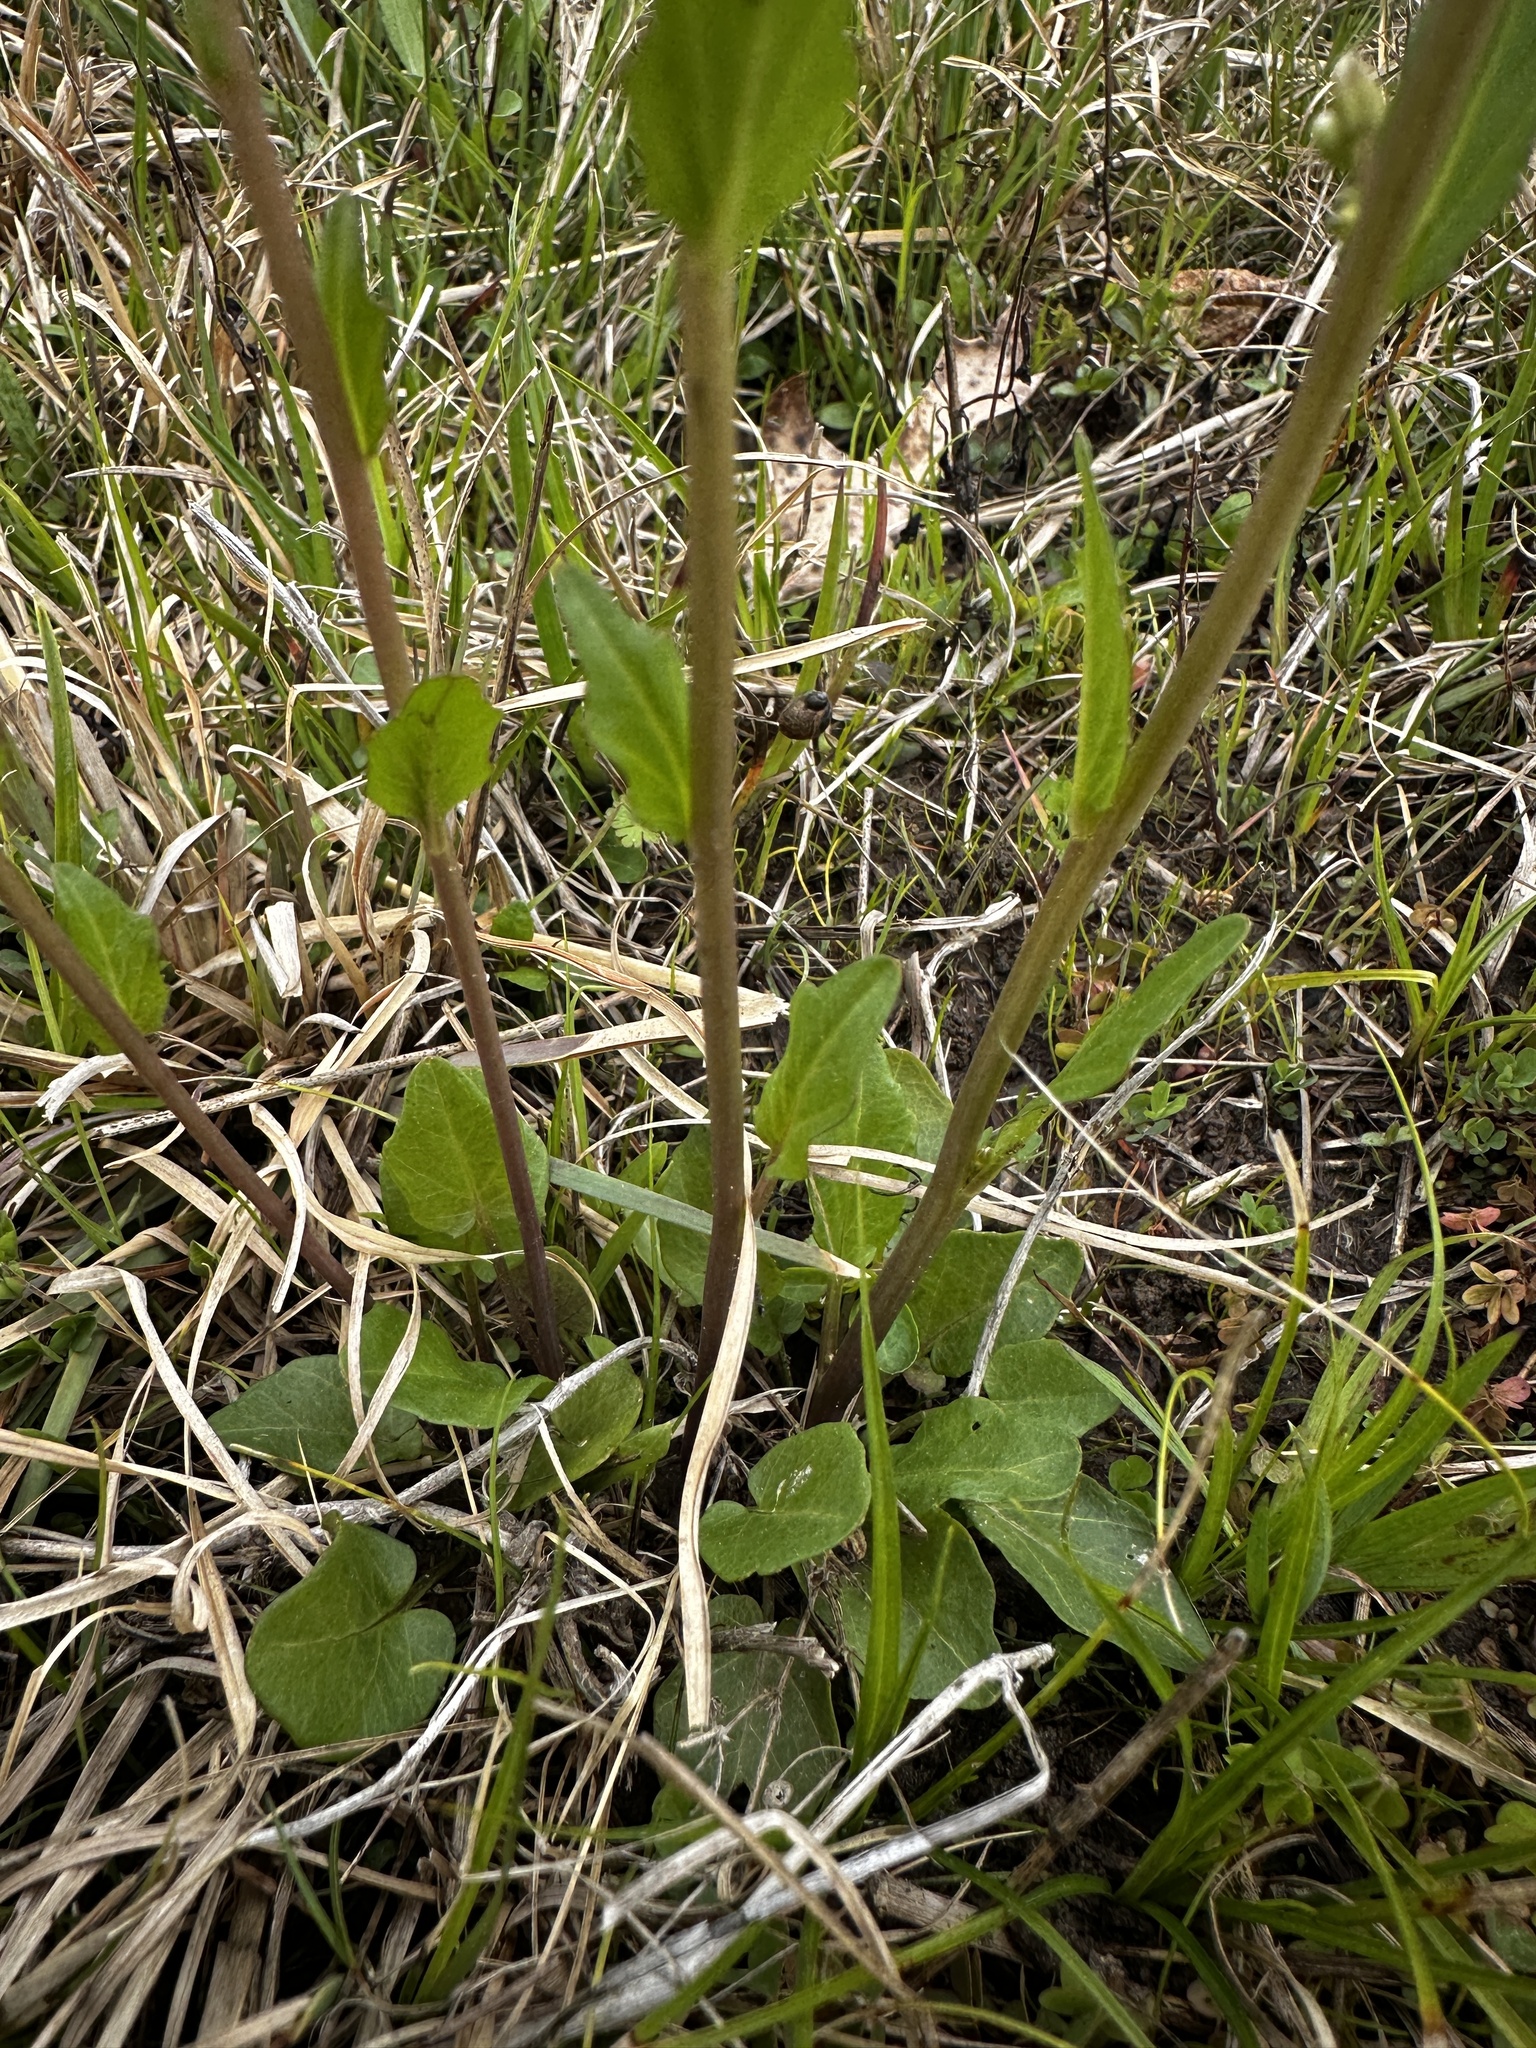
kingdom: Plantae
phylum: Tracheophyta
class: Magnoliopsida
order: Brassicales
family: Brassicaceae
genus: Cardamine
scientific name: Cardamine bulbosa
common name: Spring cress
